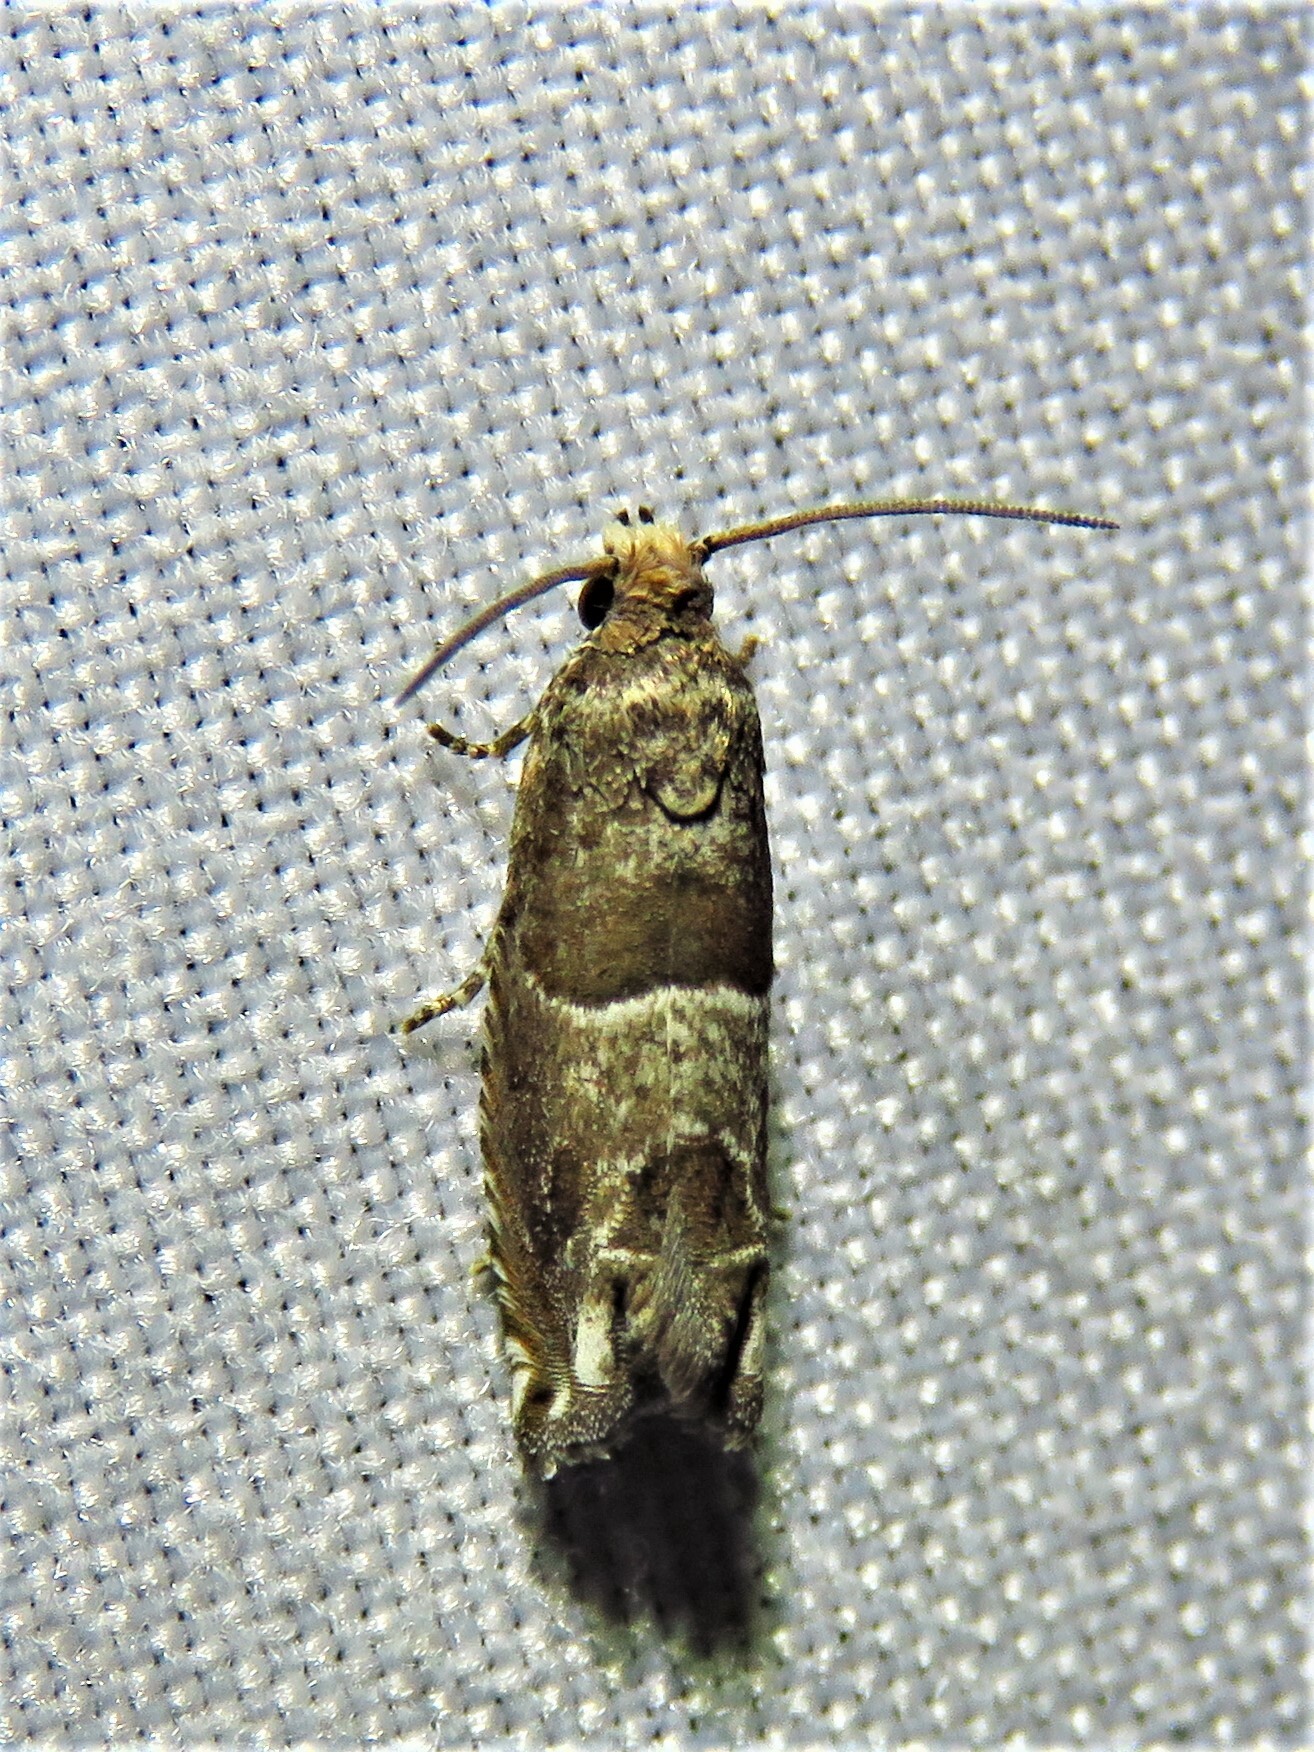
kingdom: Animalia
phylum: Arthropoda
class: Insecta
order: Lepidoptera
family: Tortricidae
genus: Sonia
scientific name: Sonia constrictana
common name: Constricted sonia moth
